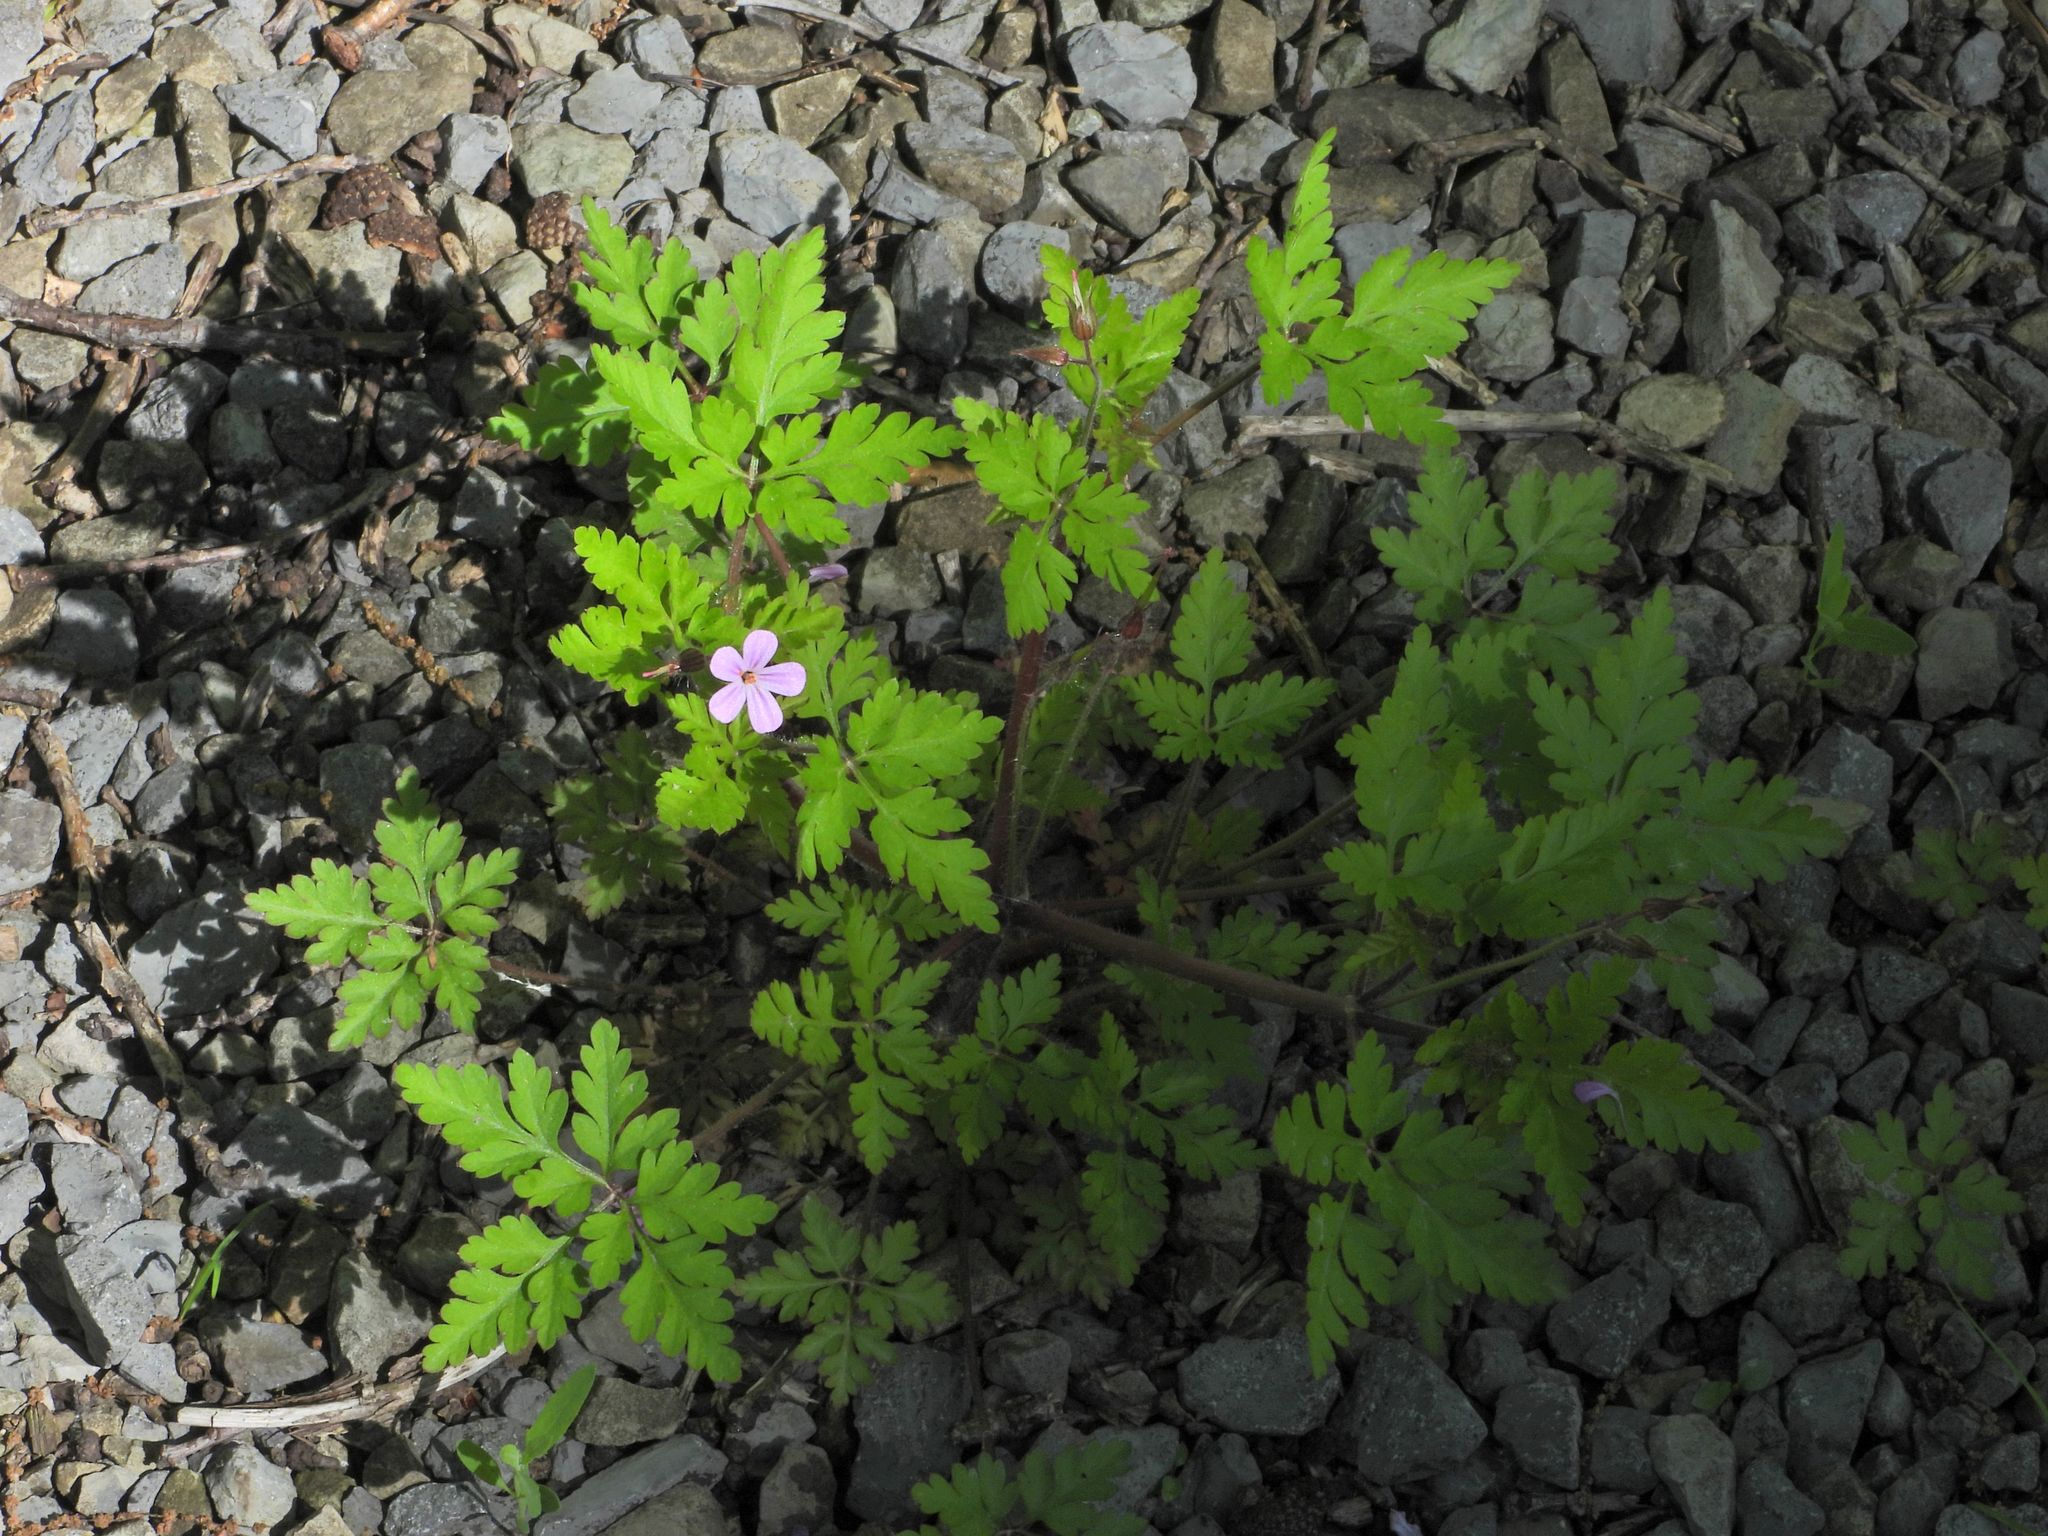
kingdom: Plantae
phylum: Tracheophyta
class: Magnoliopsida
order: Geraniales
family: Geraniaceae
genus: Geranium
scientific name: Geranium robertianum
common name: Herb-robert
